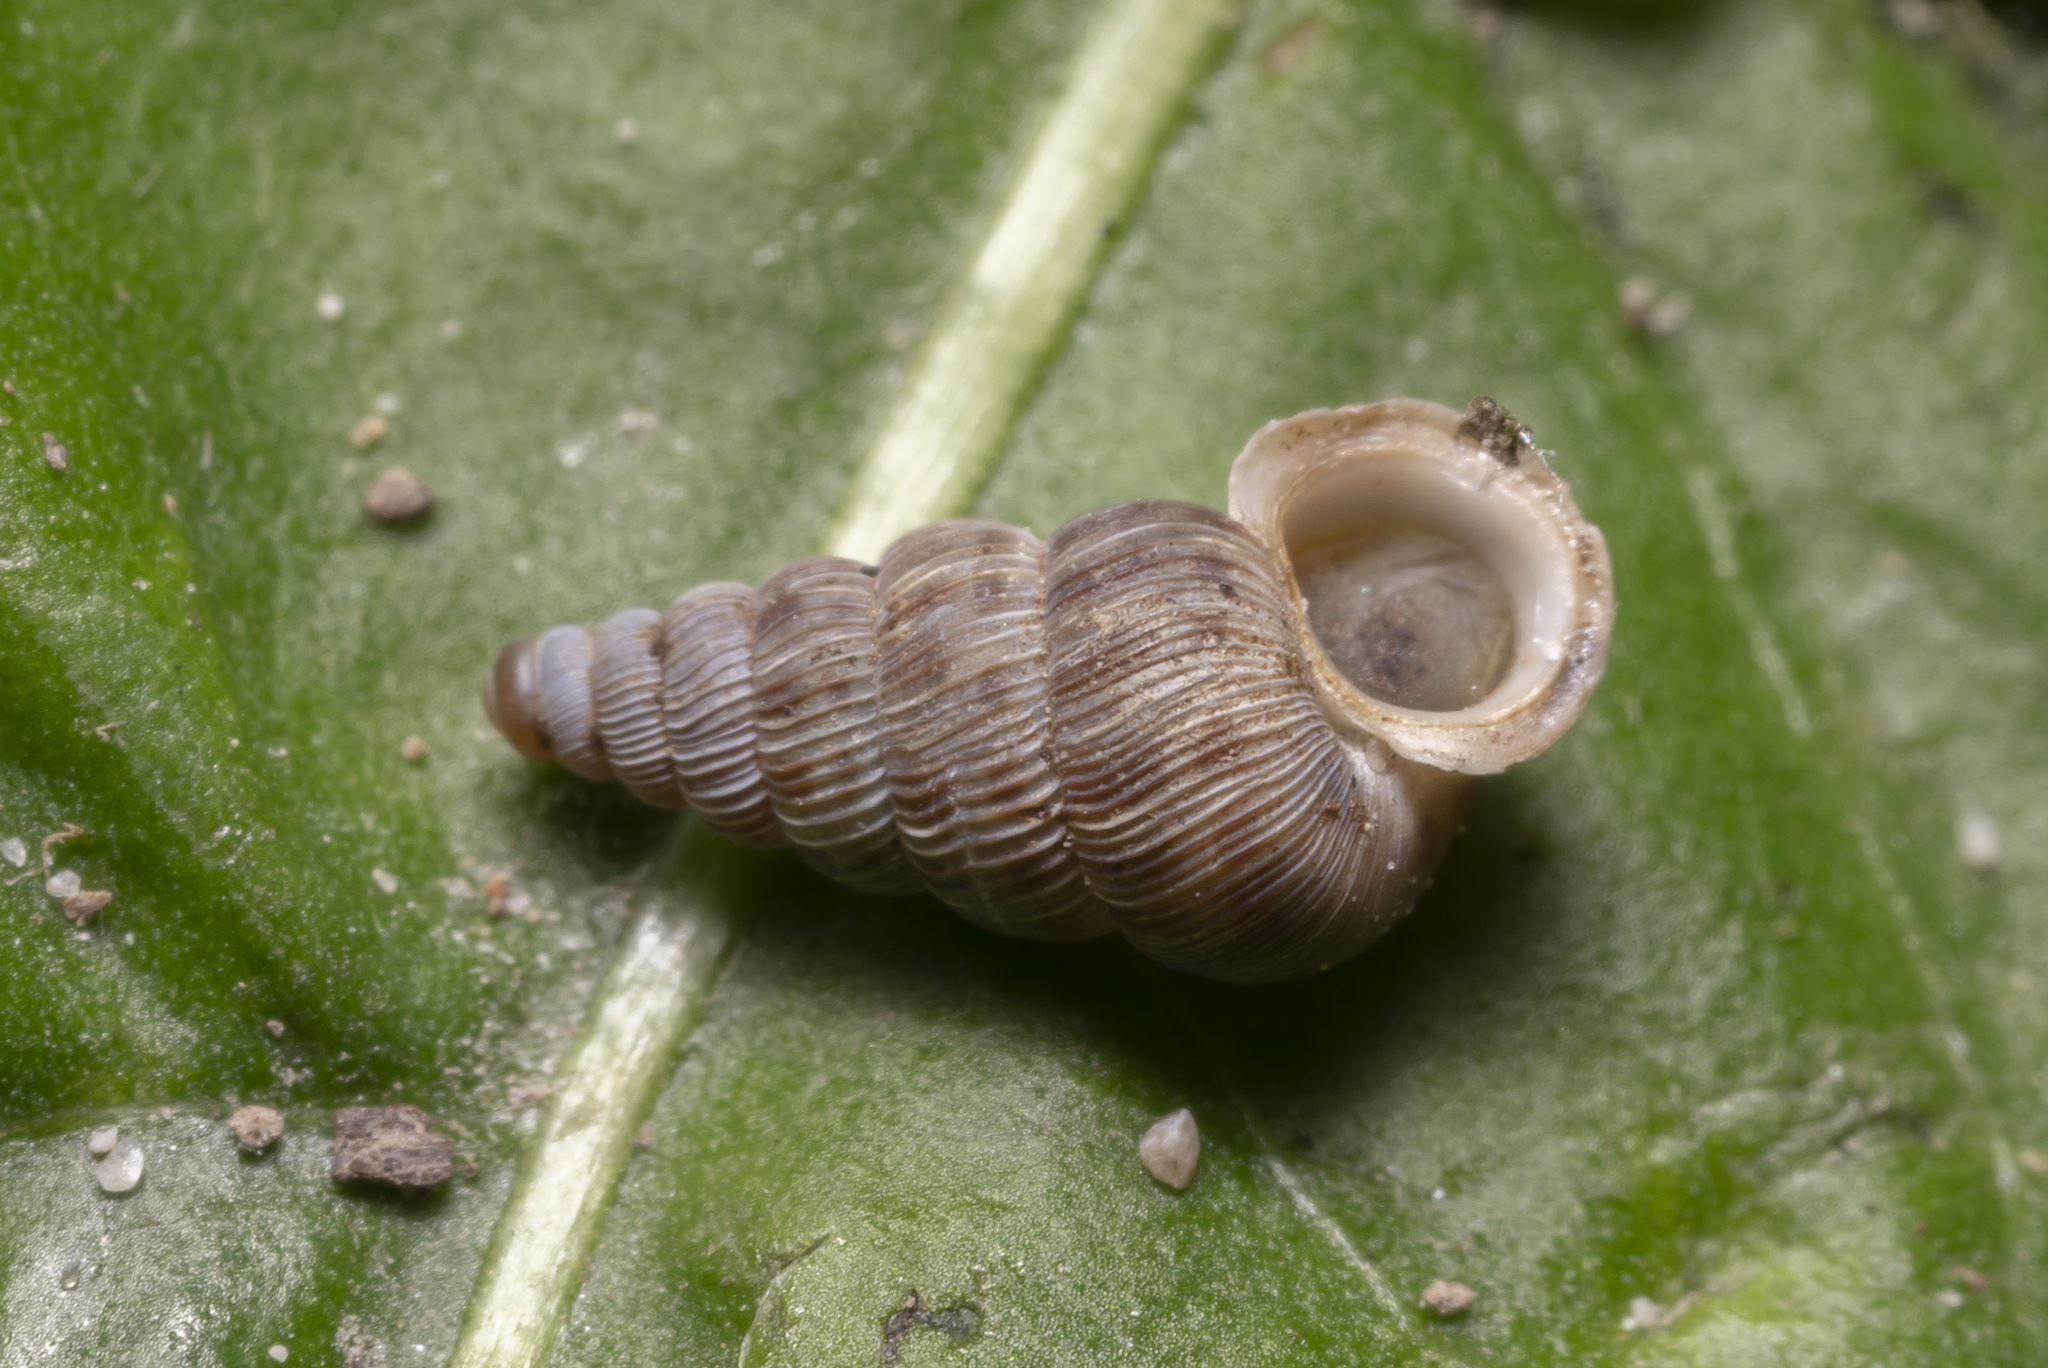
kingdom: Animalia
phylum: Mollusca
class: Gastropoda
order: Architaenioglossa
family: Cochlostomatidae
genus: Cochlostoma
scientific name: Cochlostoma septemspirale
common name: Seven-whorl snail
